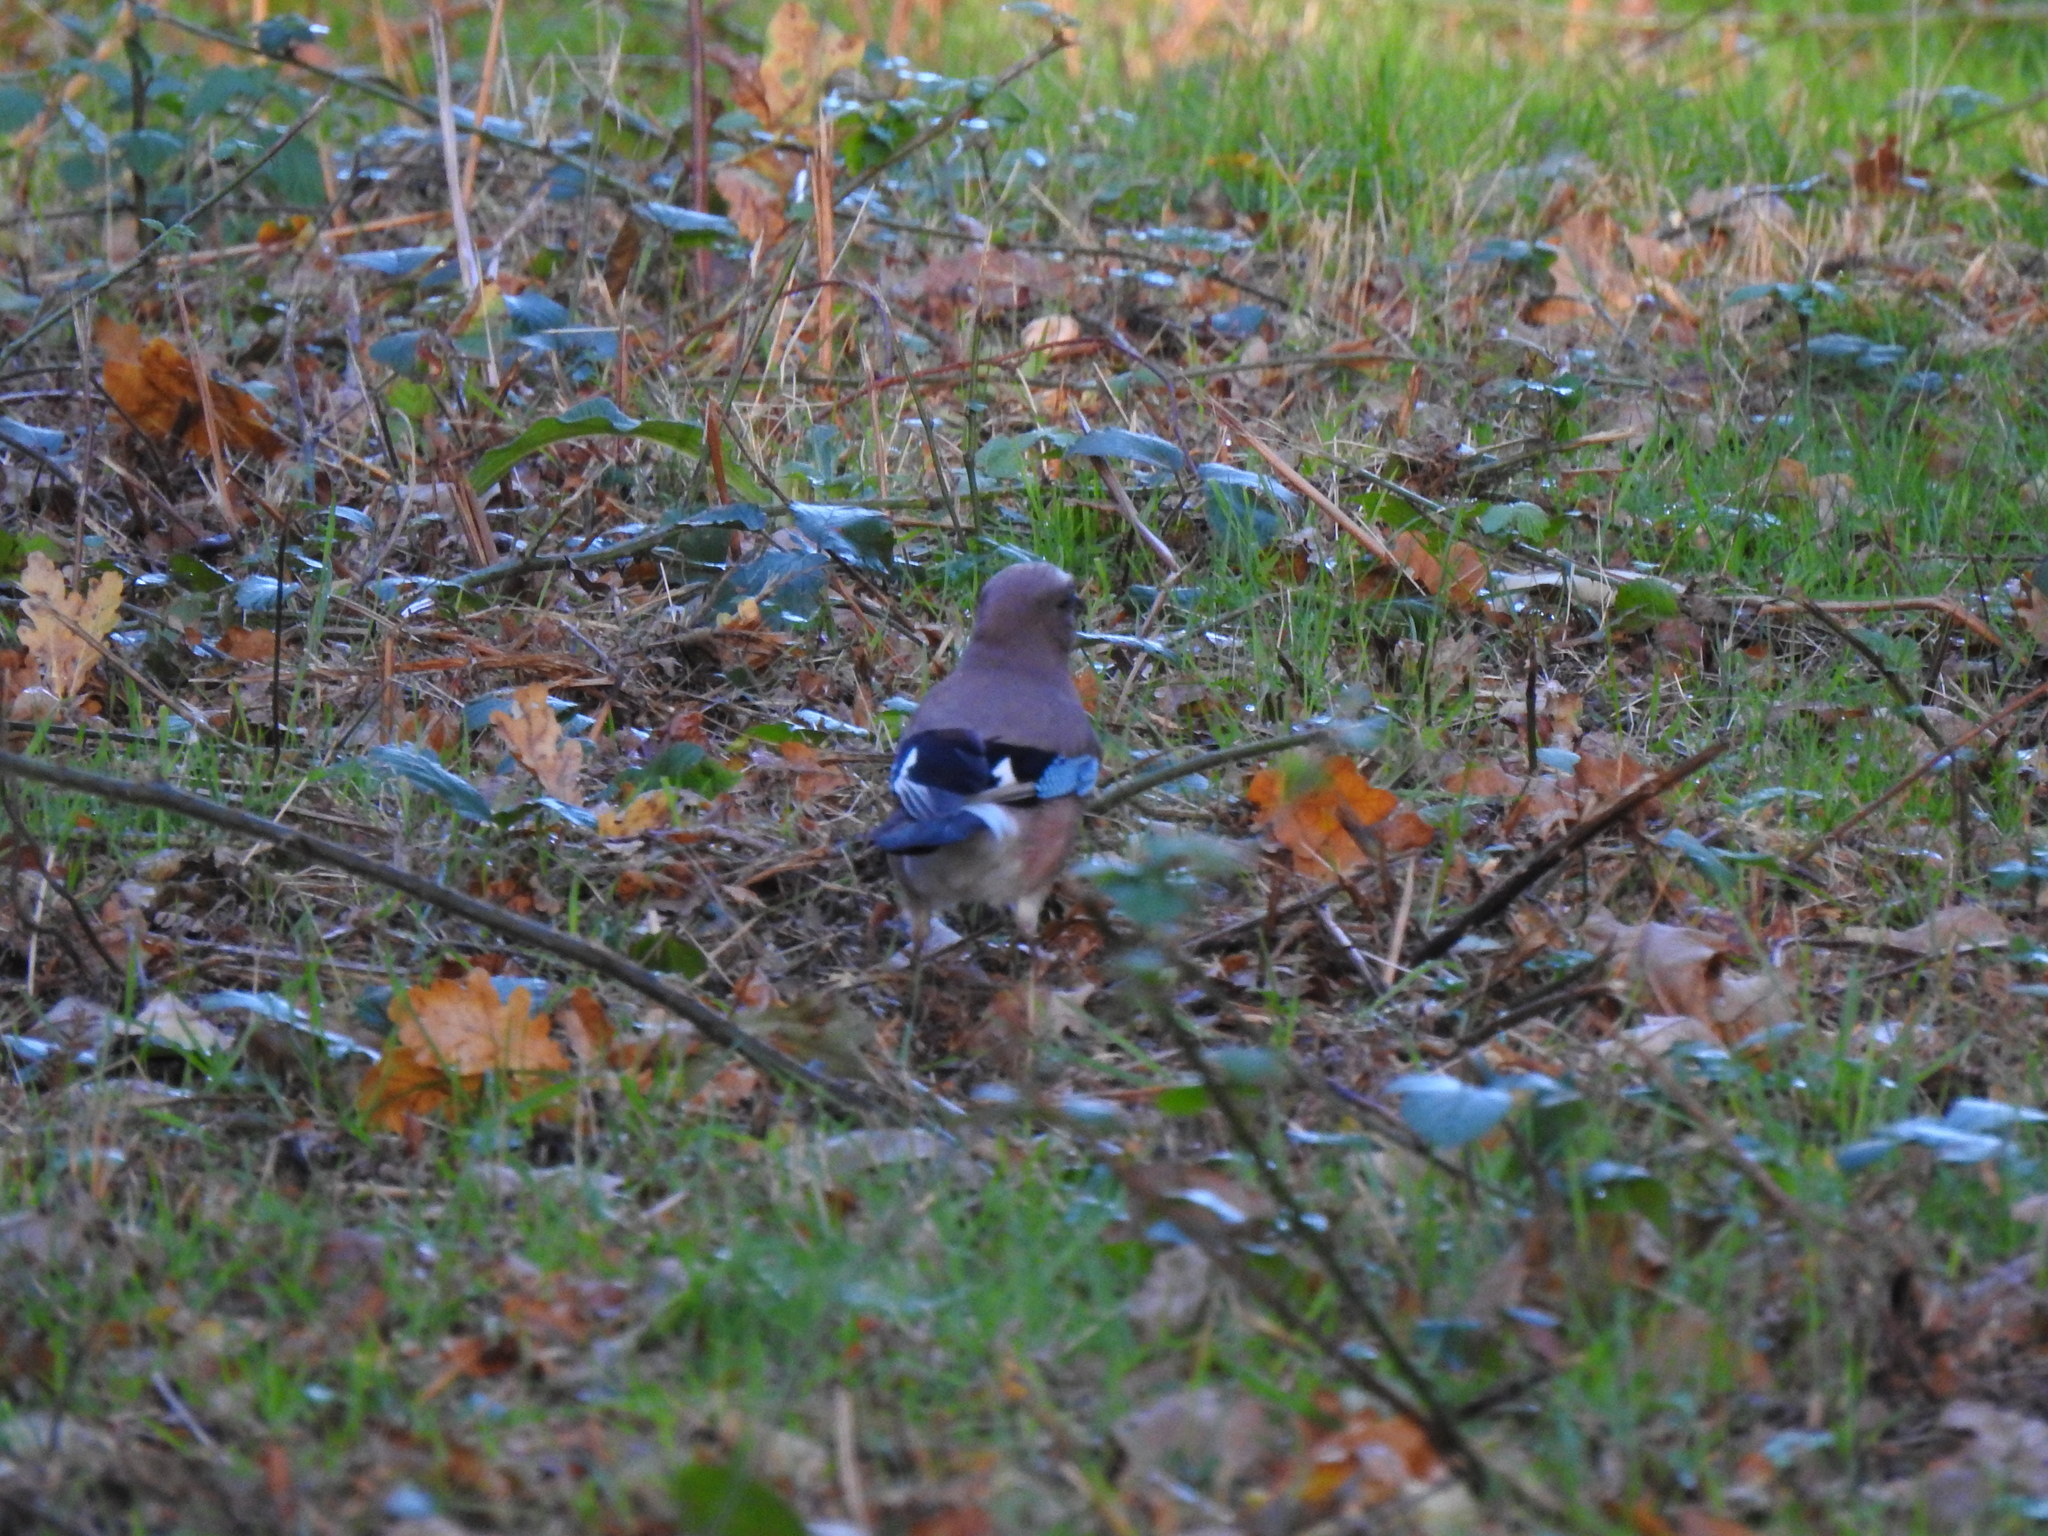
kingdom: Animalia
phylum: Chordata
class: Aves
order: Passeriformes
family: Corvidae
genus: Garrulus
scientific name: Garrulus glandarius
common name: Eurasian jay
